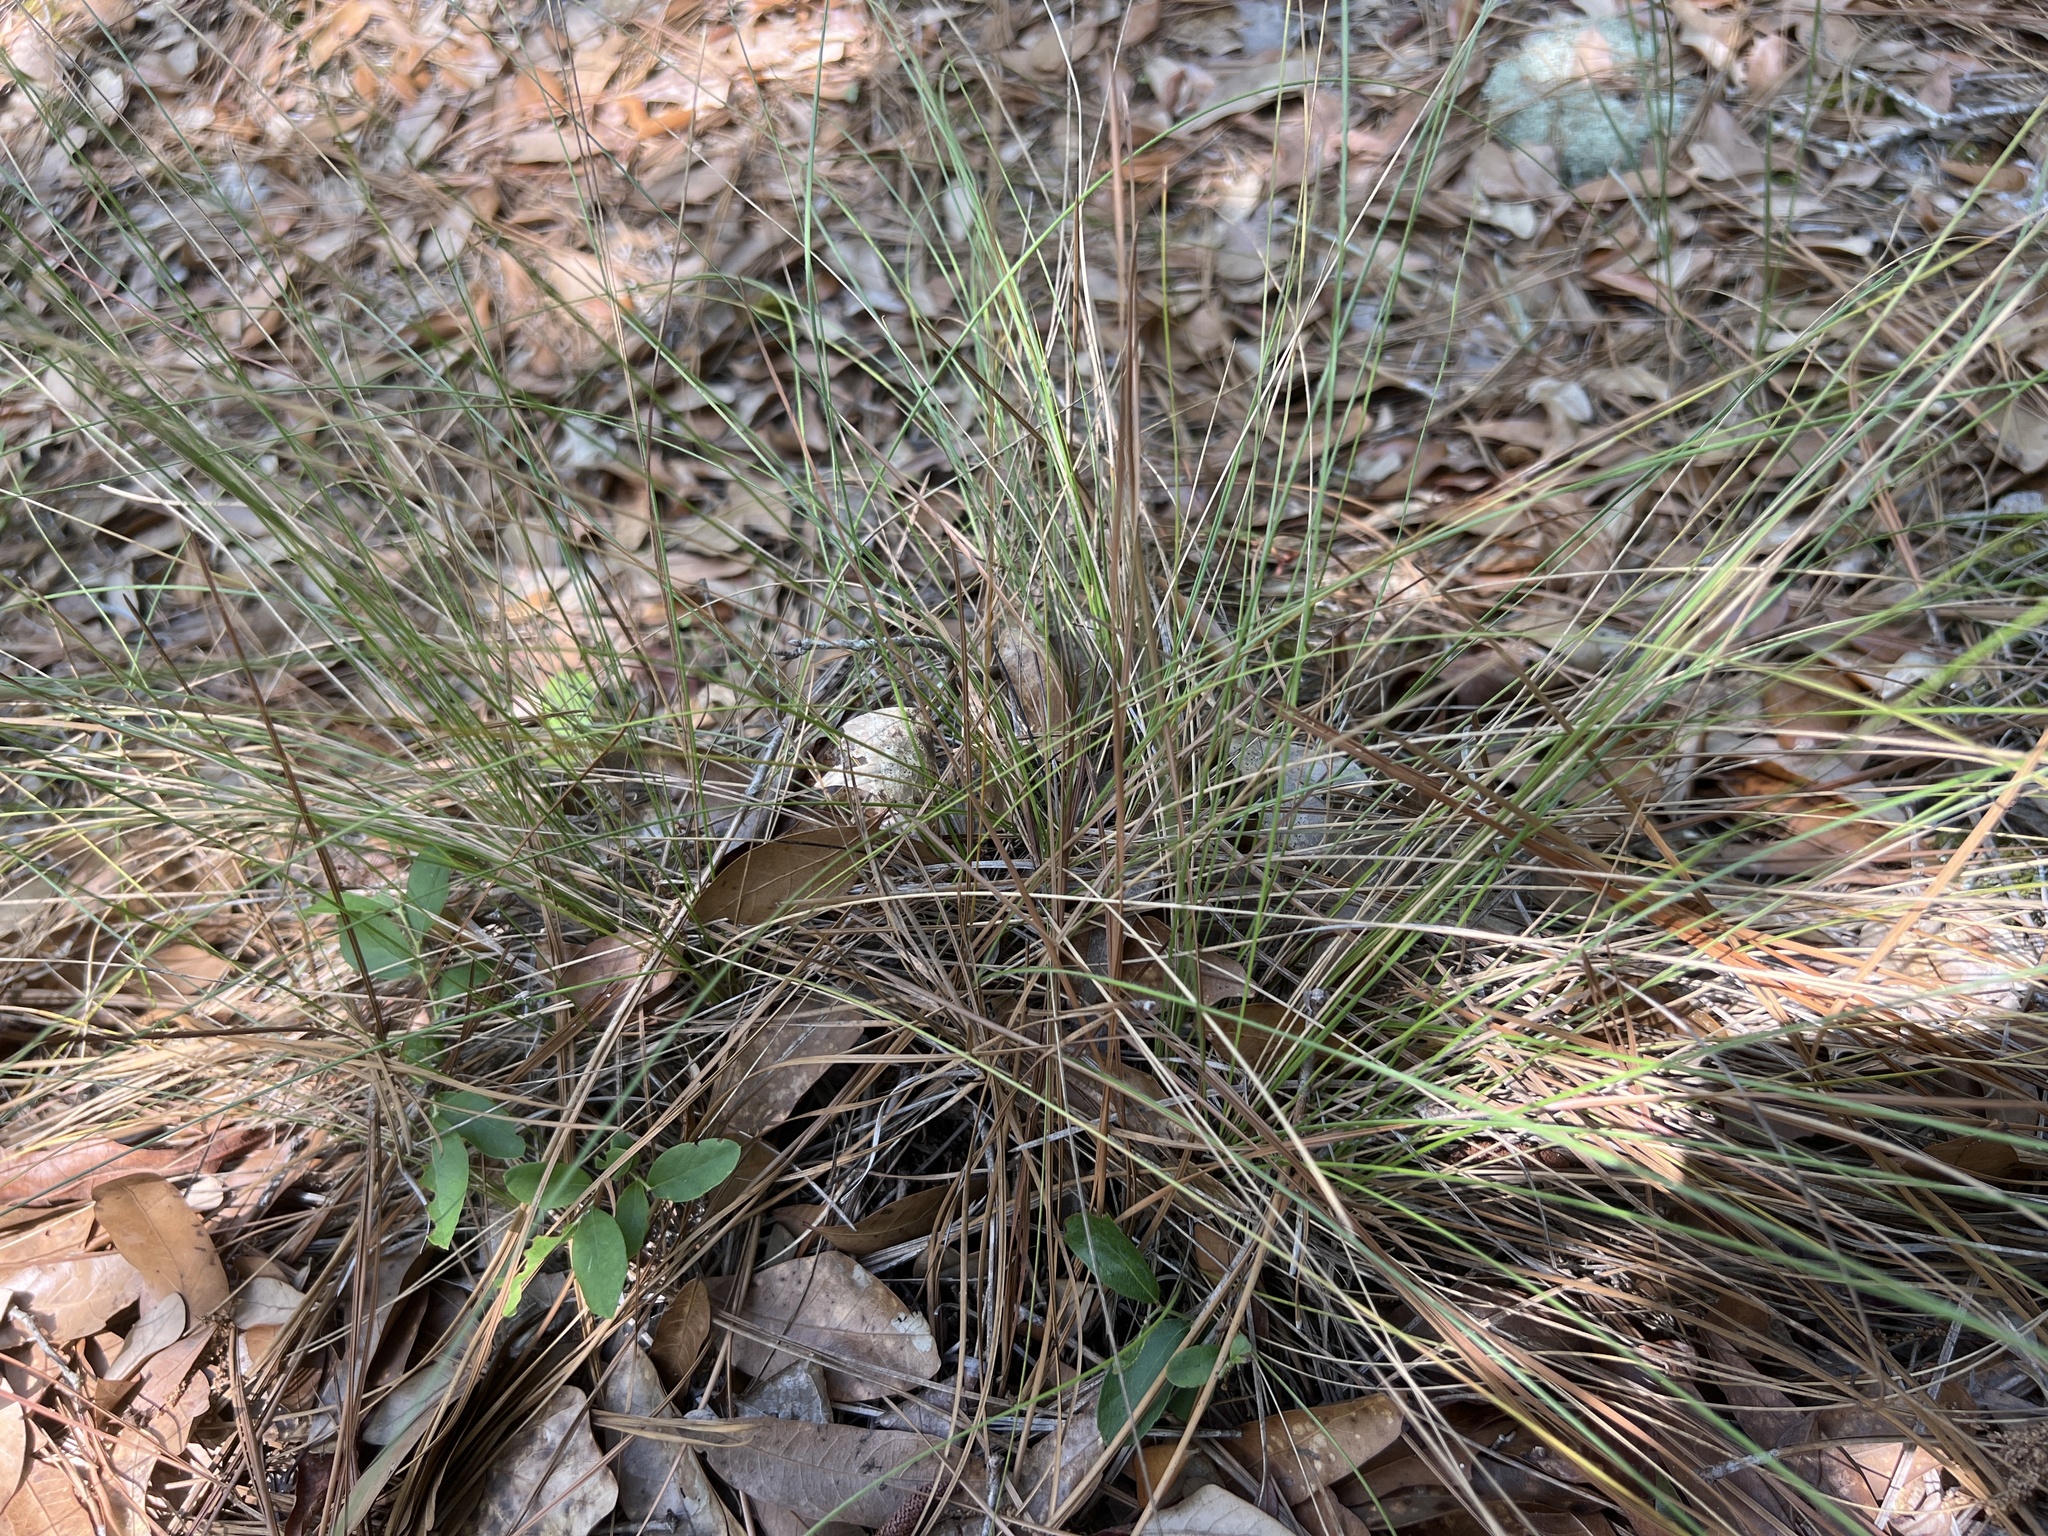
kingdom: Plantae
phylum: Tracheophyta
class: Liliopsida
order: Poales
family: Poaceae
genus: Aristida
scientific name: Aristida stricta
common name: Pineland three-awn
